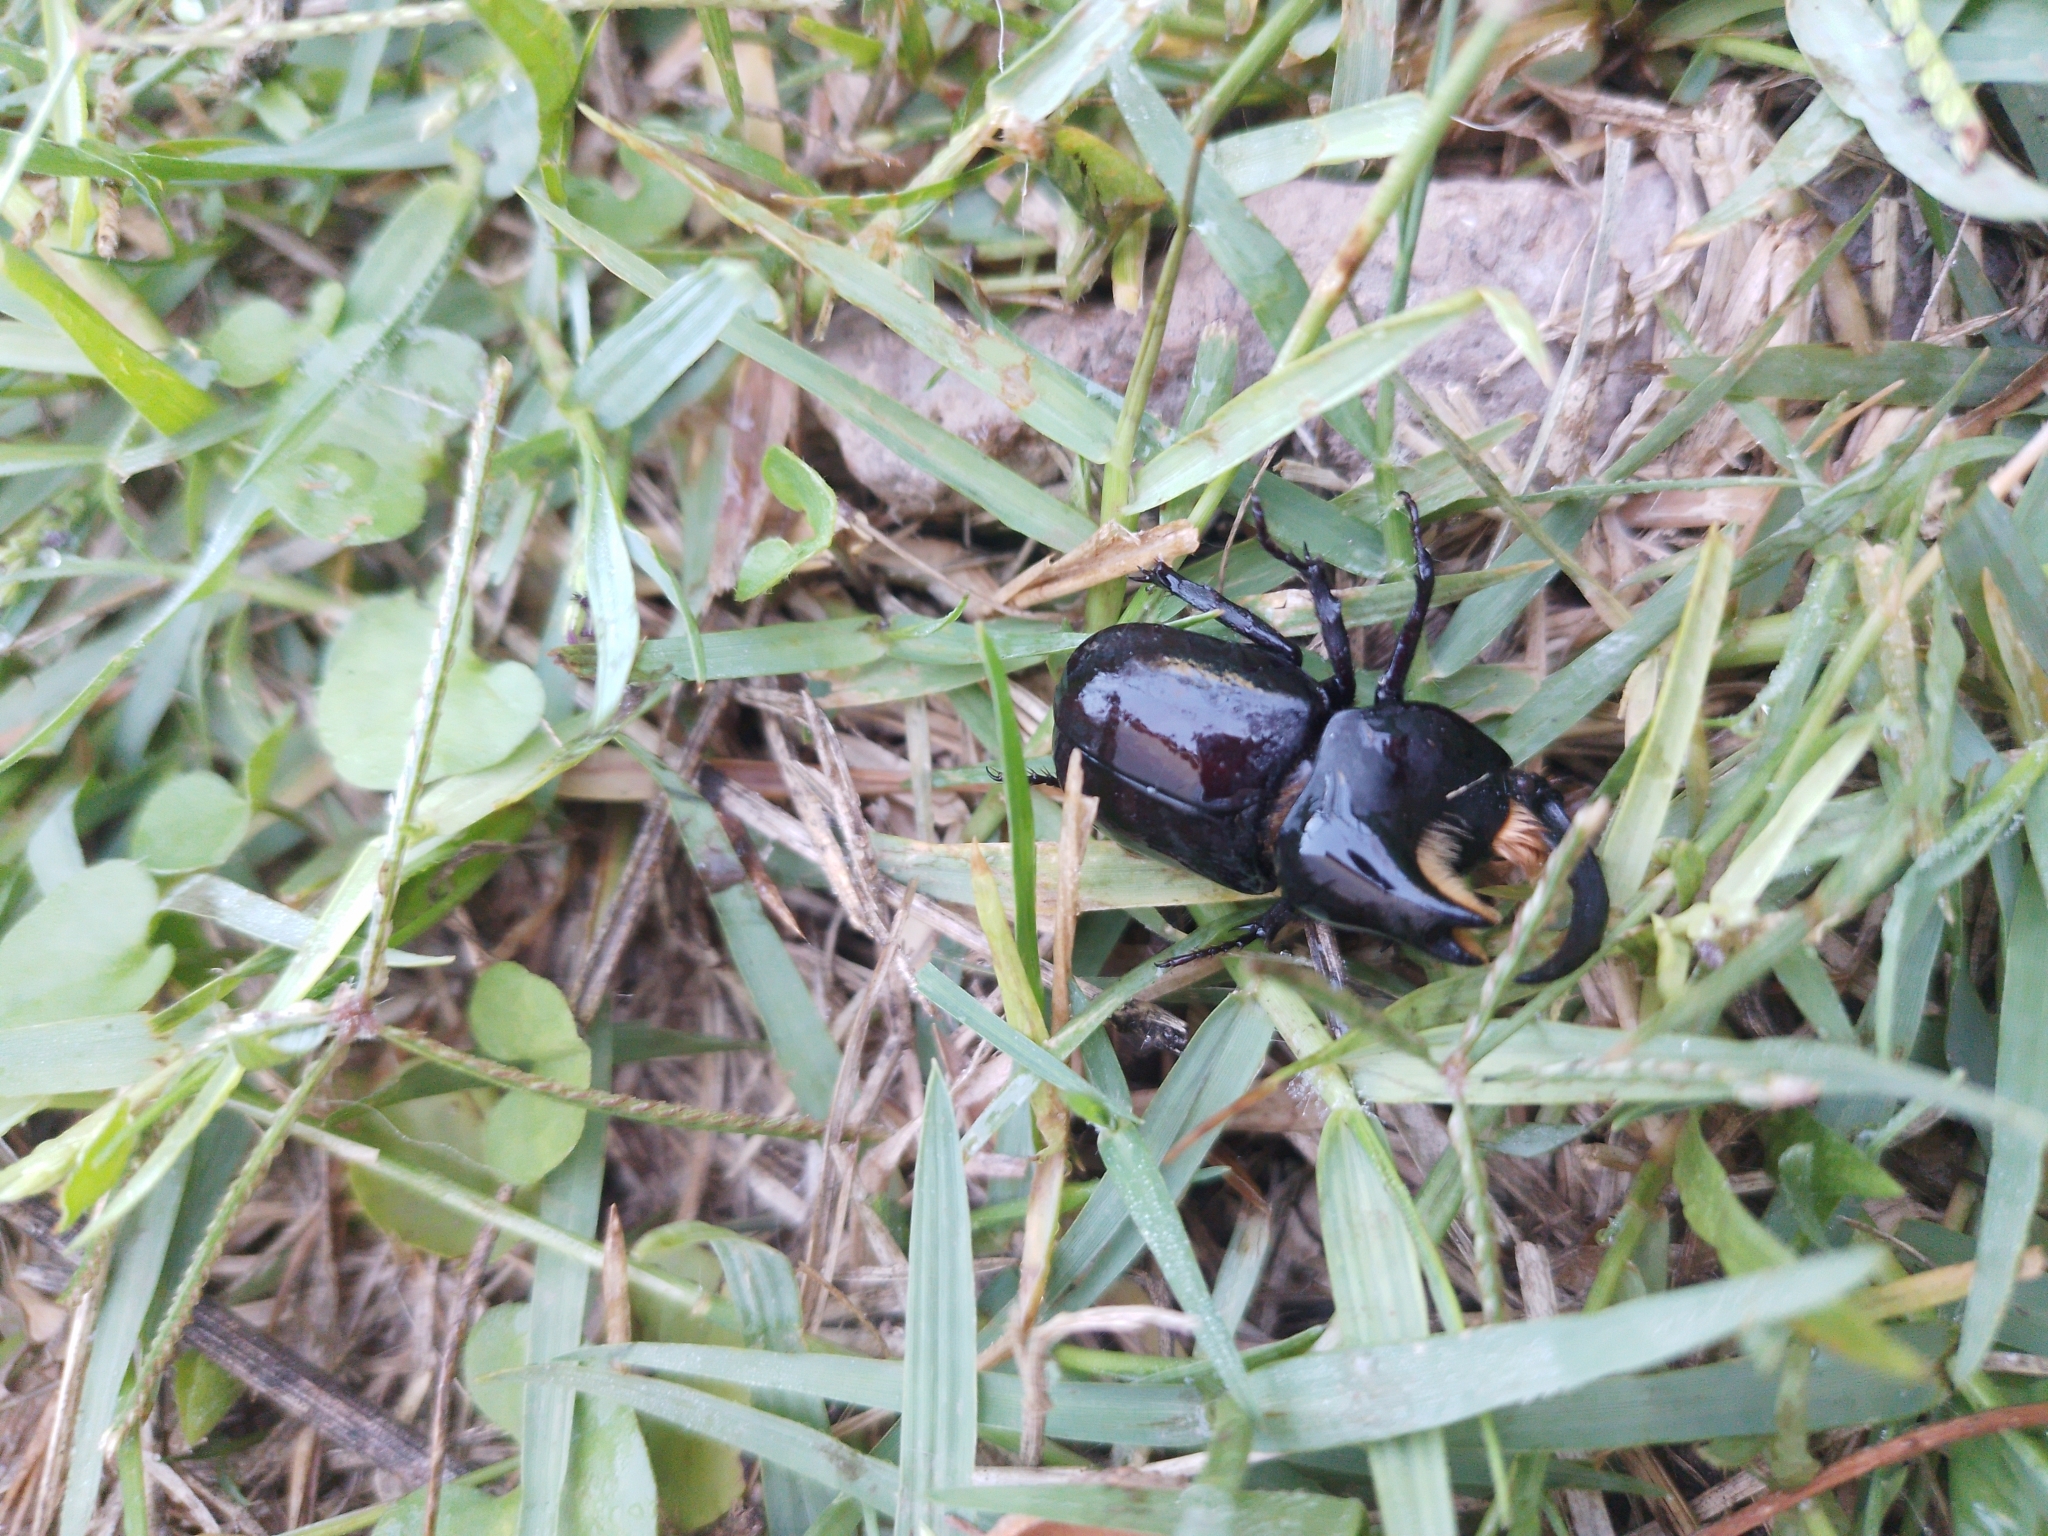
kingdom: Animalia
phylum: Arthropoda
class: Insecta
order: Coleoptera
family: Scarabaeidae
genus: Diloboderus
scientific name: Diloboderus abderus
